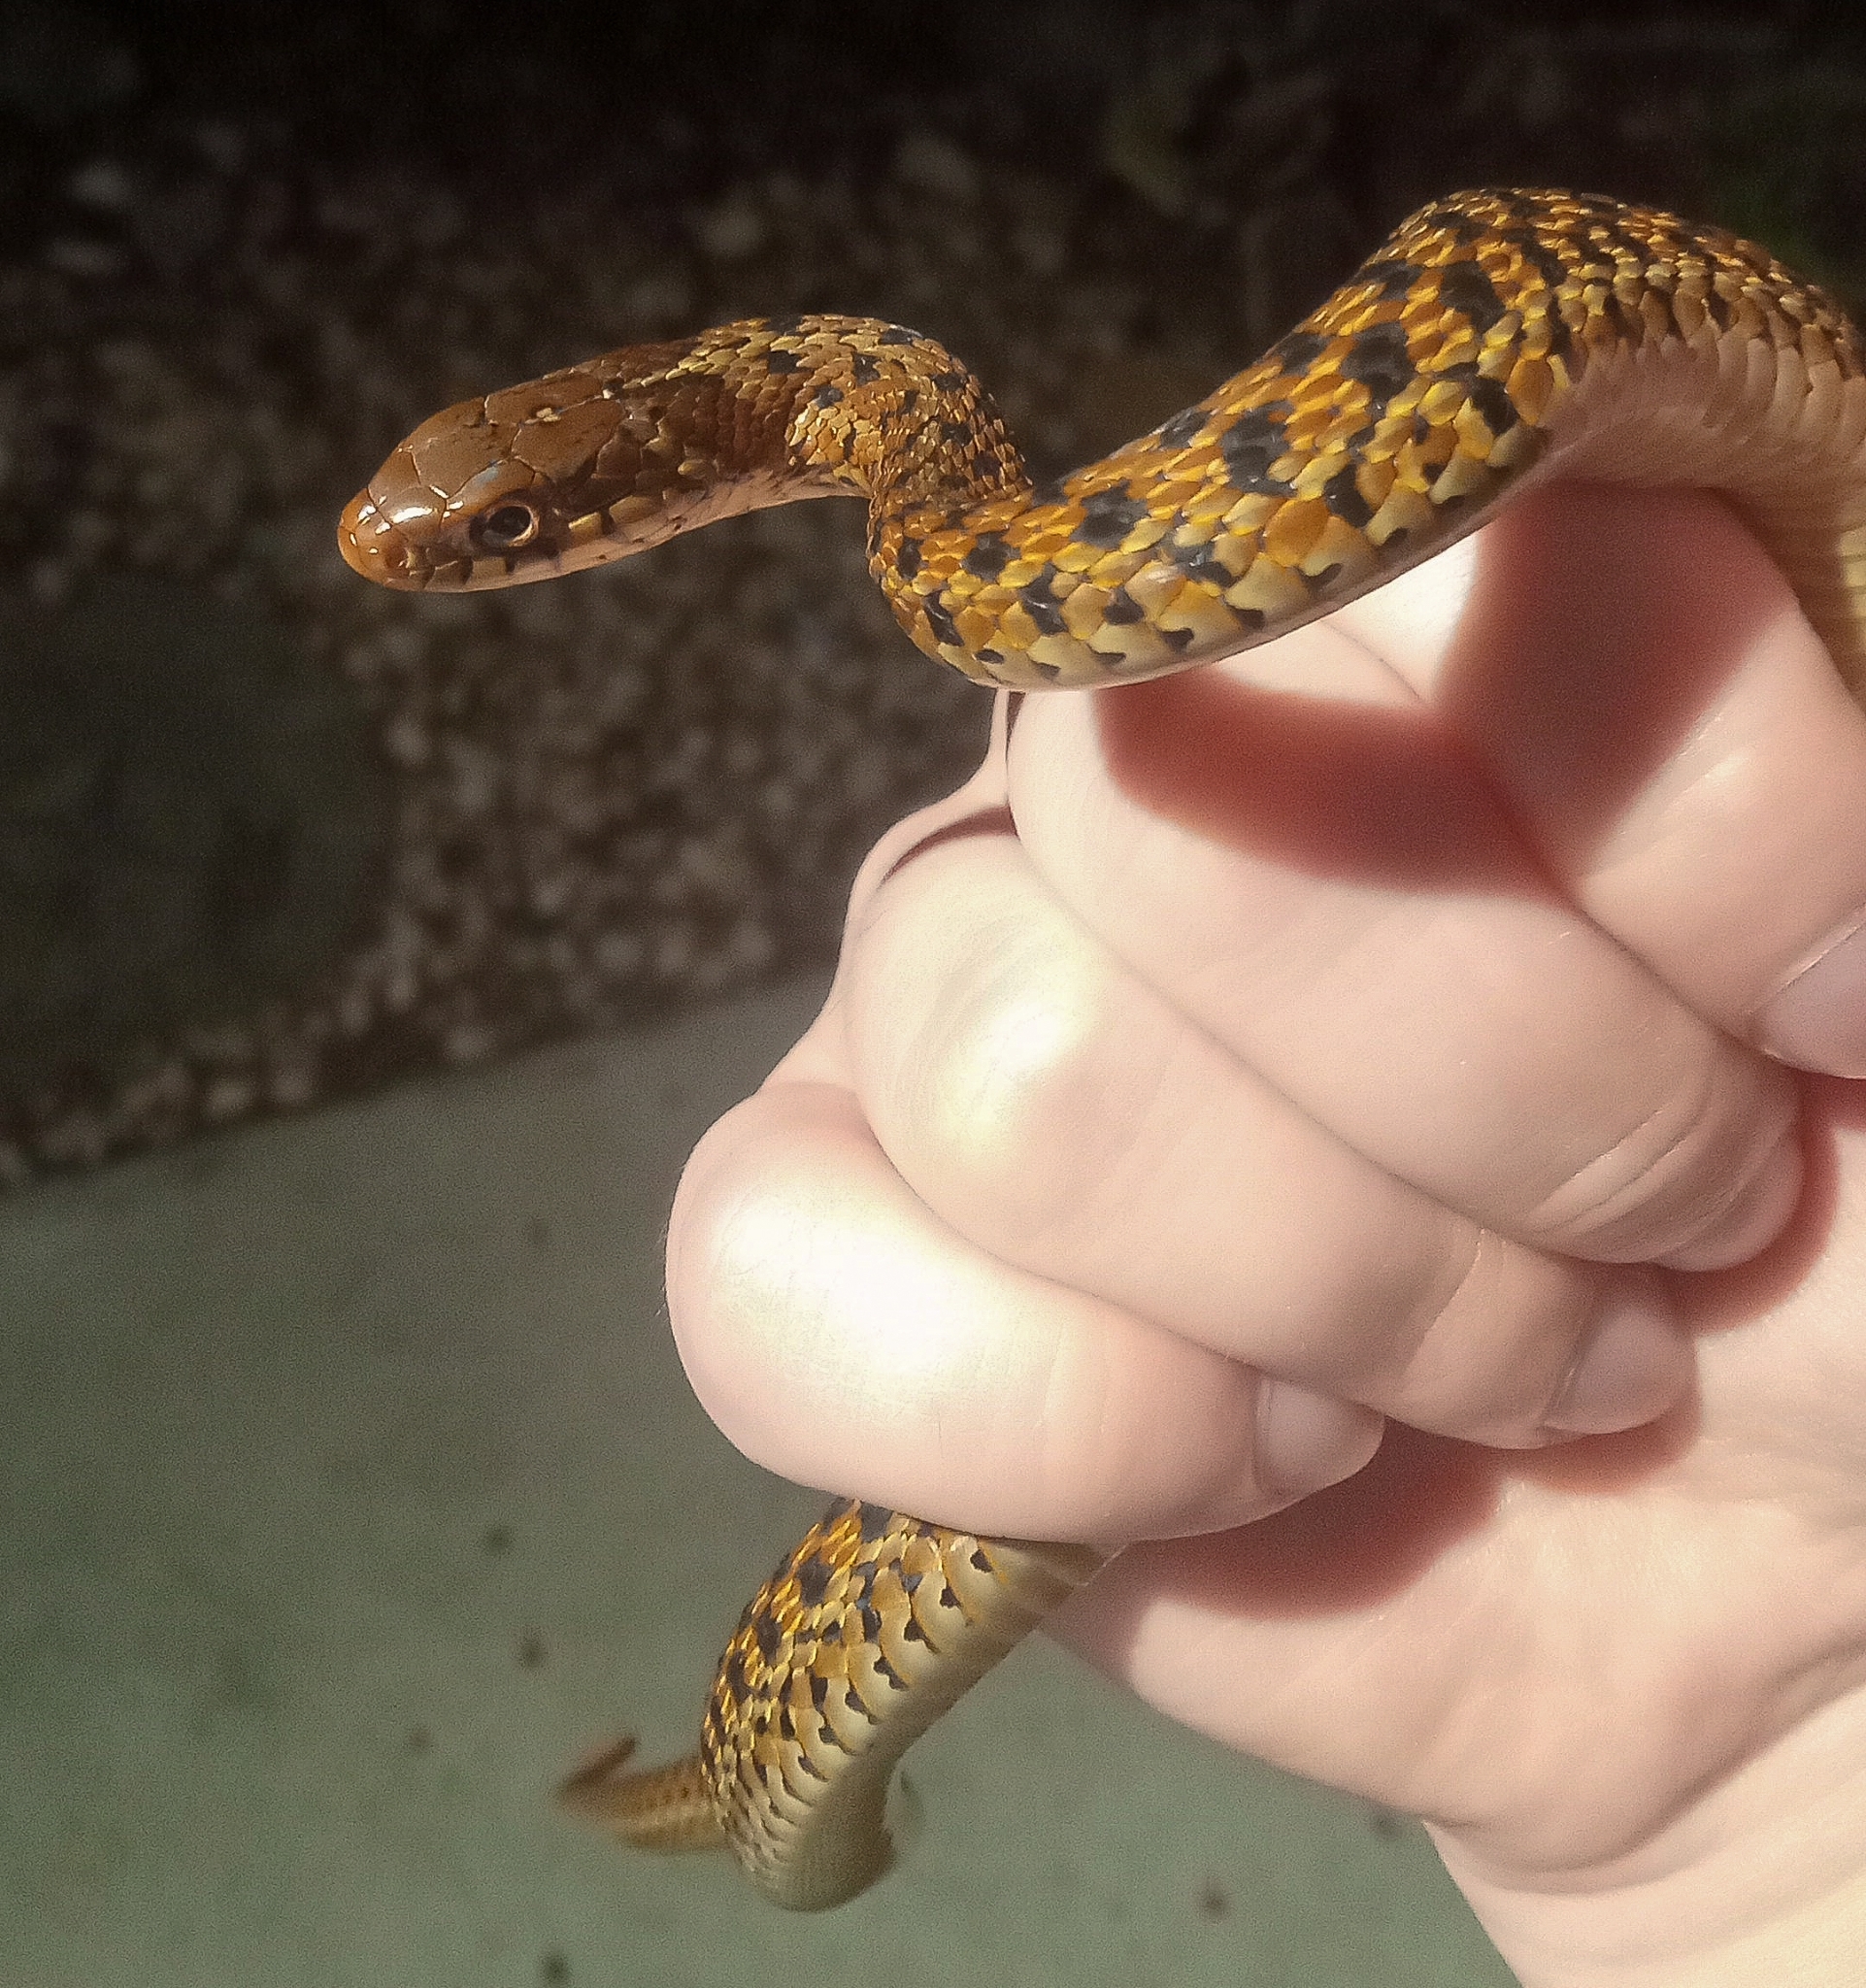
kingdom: Animalia
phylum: Chordata
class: Squamata
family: Colubridae
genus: Thamnophis
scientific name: Thamnophis sirtalis
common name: Common garter snake
